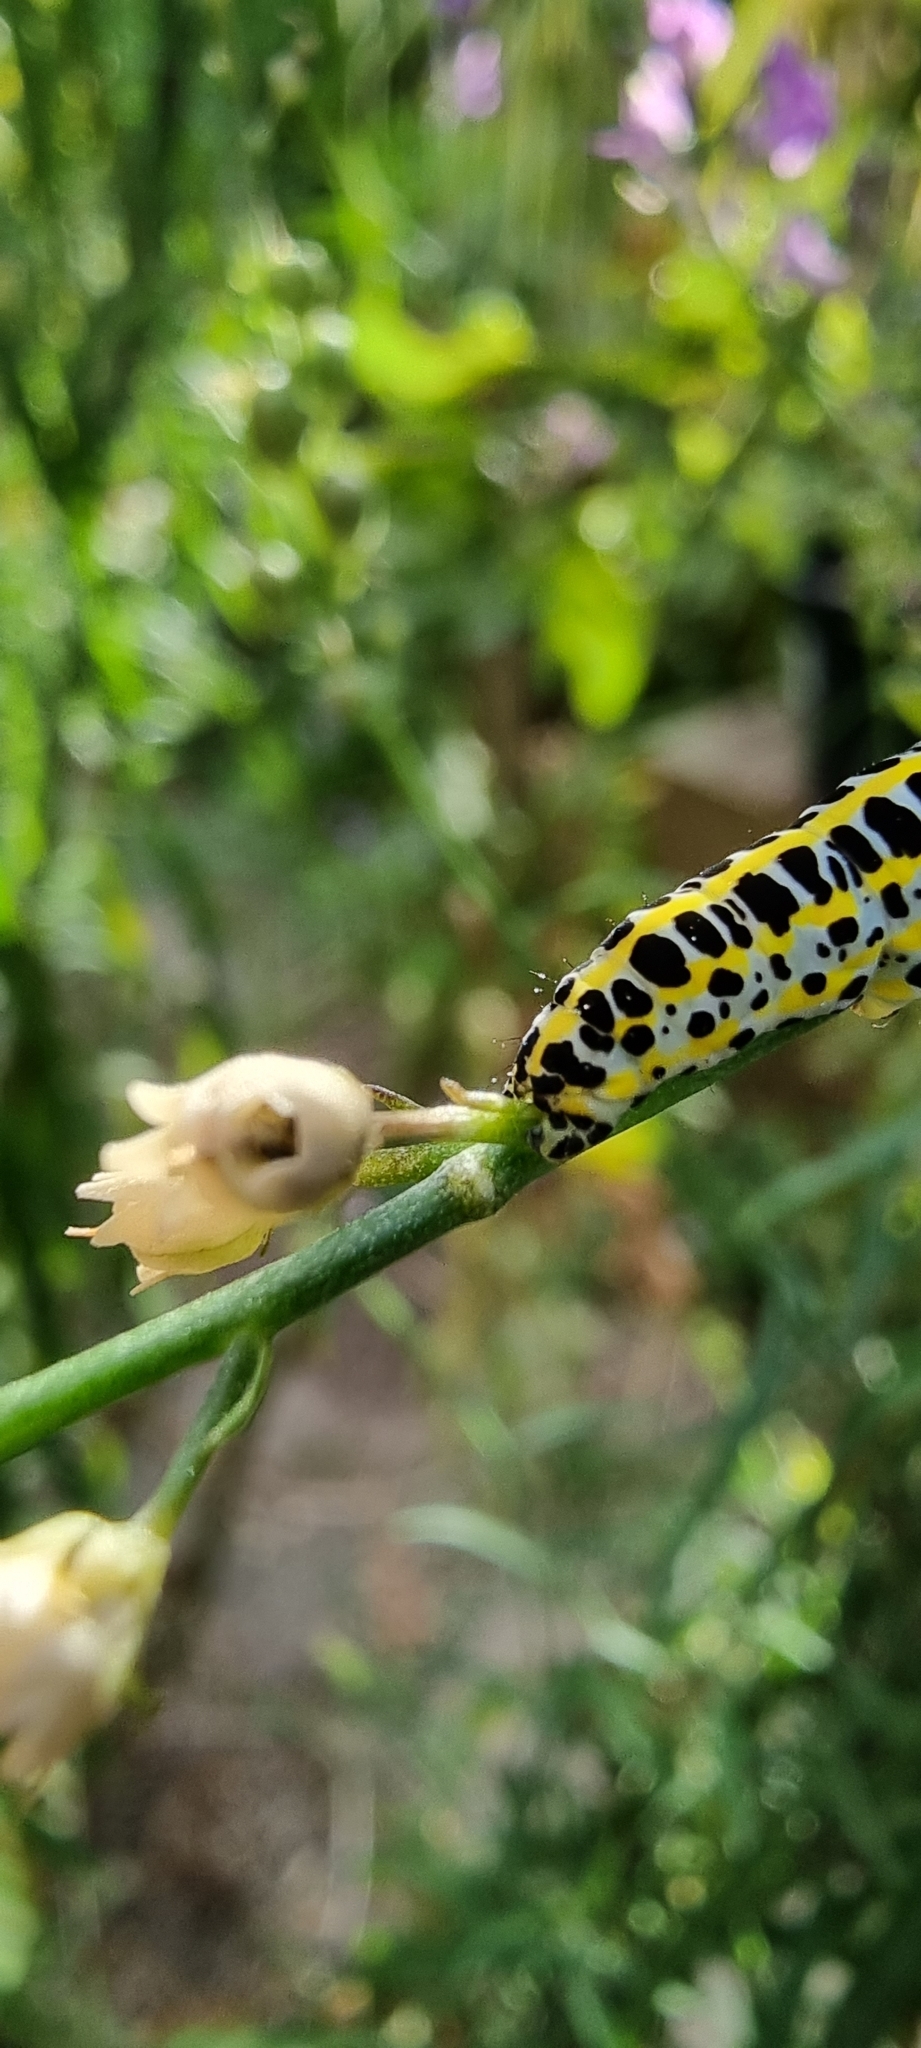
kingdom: Animalia
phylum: Arthropoda
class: Insecta
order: Lepidoptera
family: Noctuidae
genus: Calophasia
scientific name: Calophasia lunula
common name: Toadflax brocade
